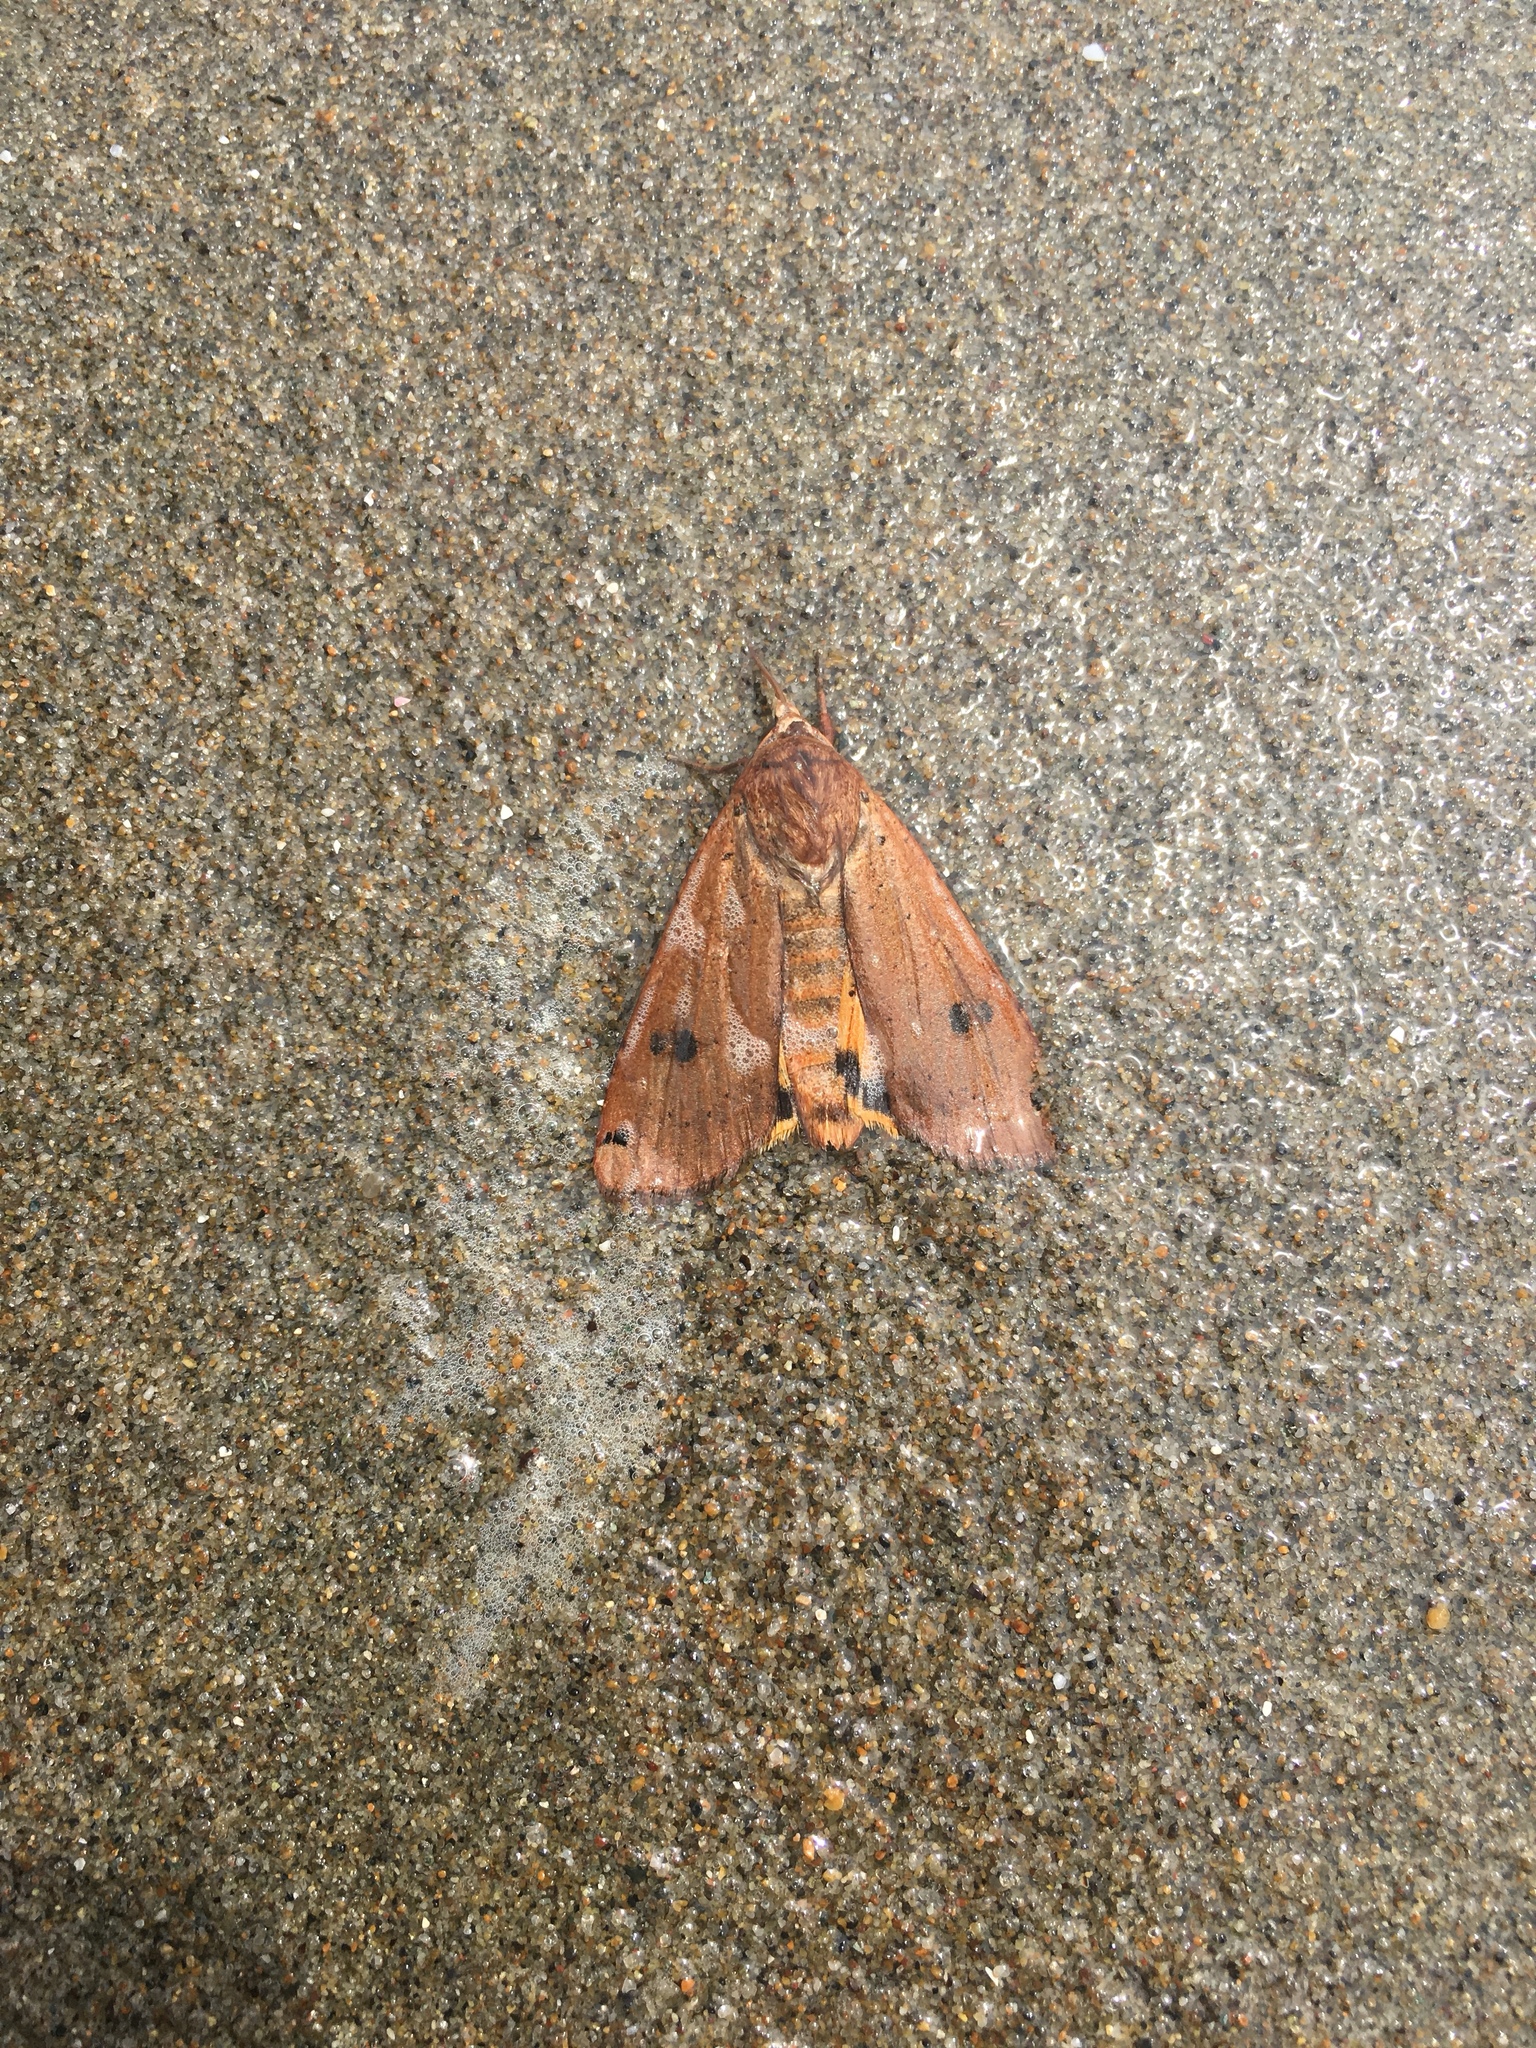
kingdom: Animalia
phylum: Arthropoda
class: Insecta
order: Lepidoptera
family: Noctuidae
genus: Noctua
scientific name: Noctua pronuba
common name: Large yellow underwing
